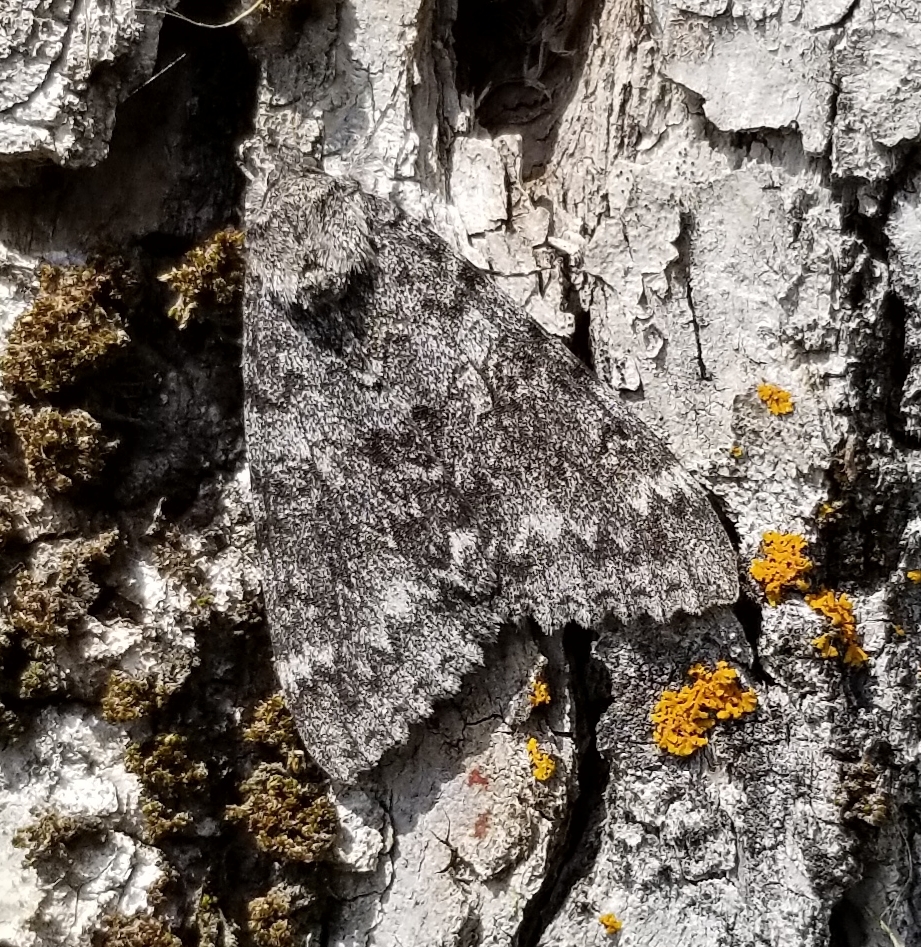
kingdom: Animalia
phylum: Arthropoda
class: Insecta
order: Lepidoptera
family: Erebidae
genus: Catocala
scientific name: Catocala unijuga
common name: Once-married underwing
